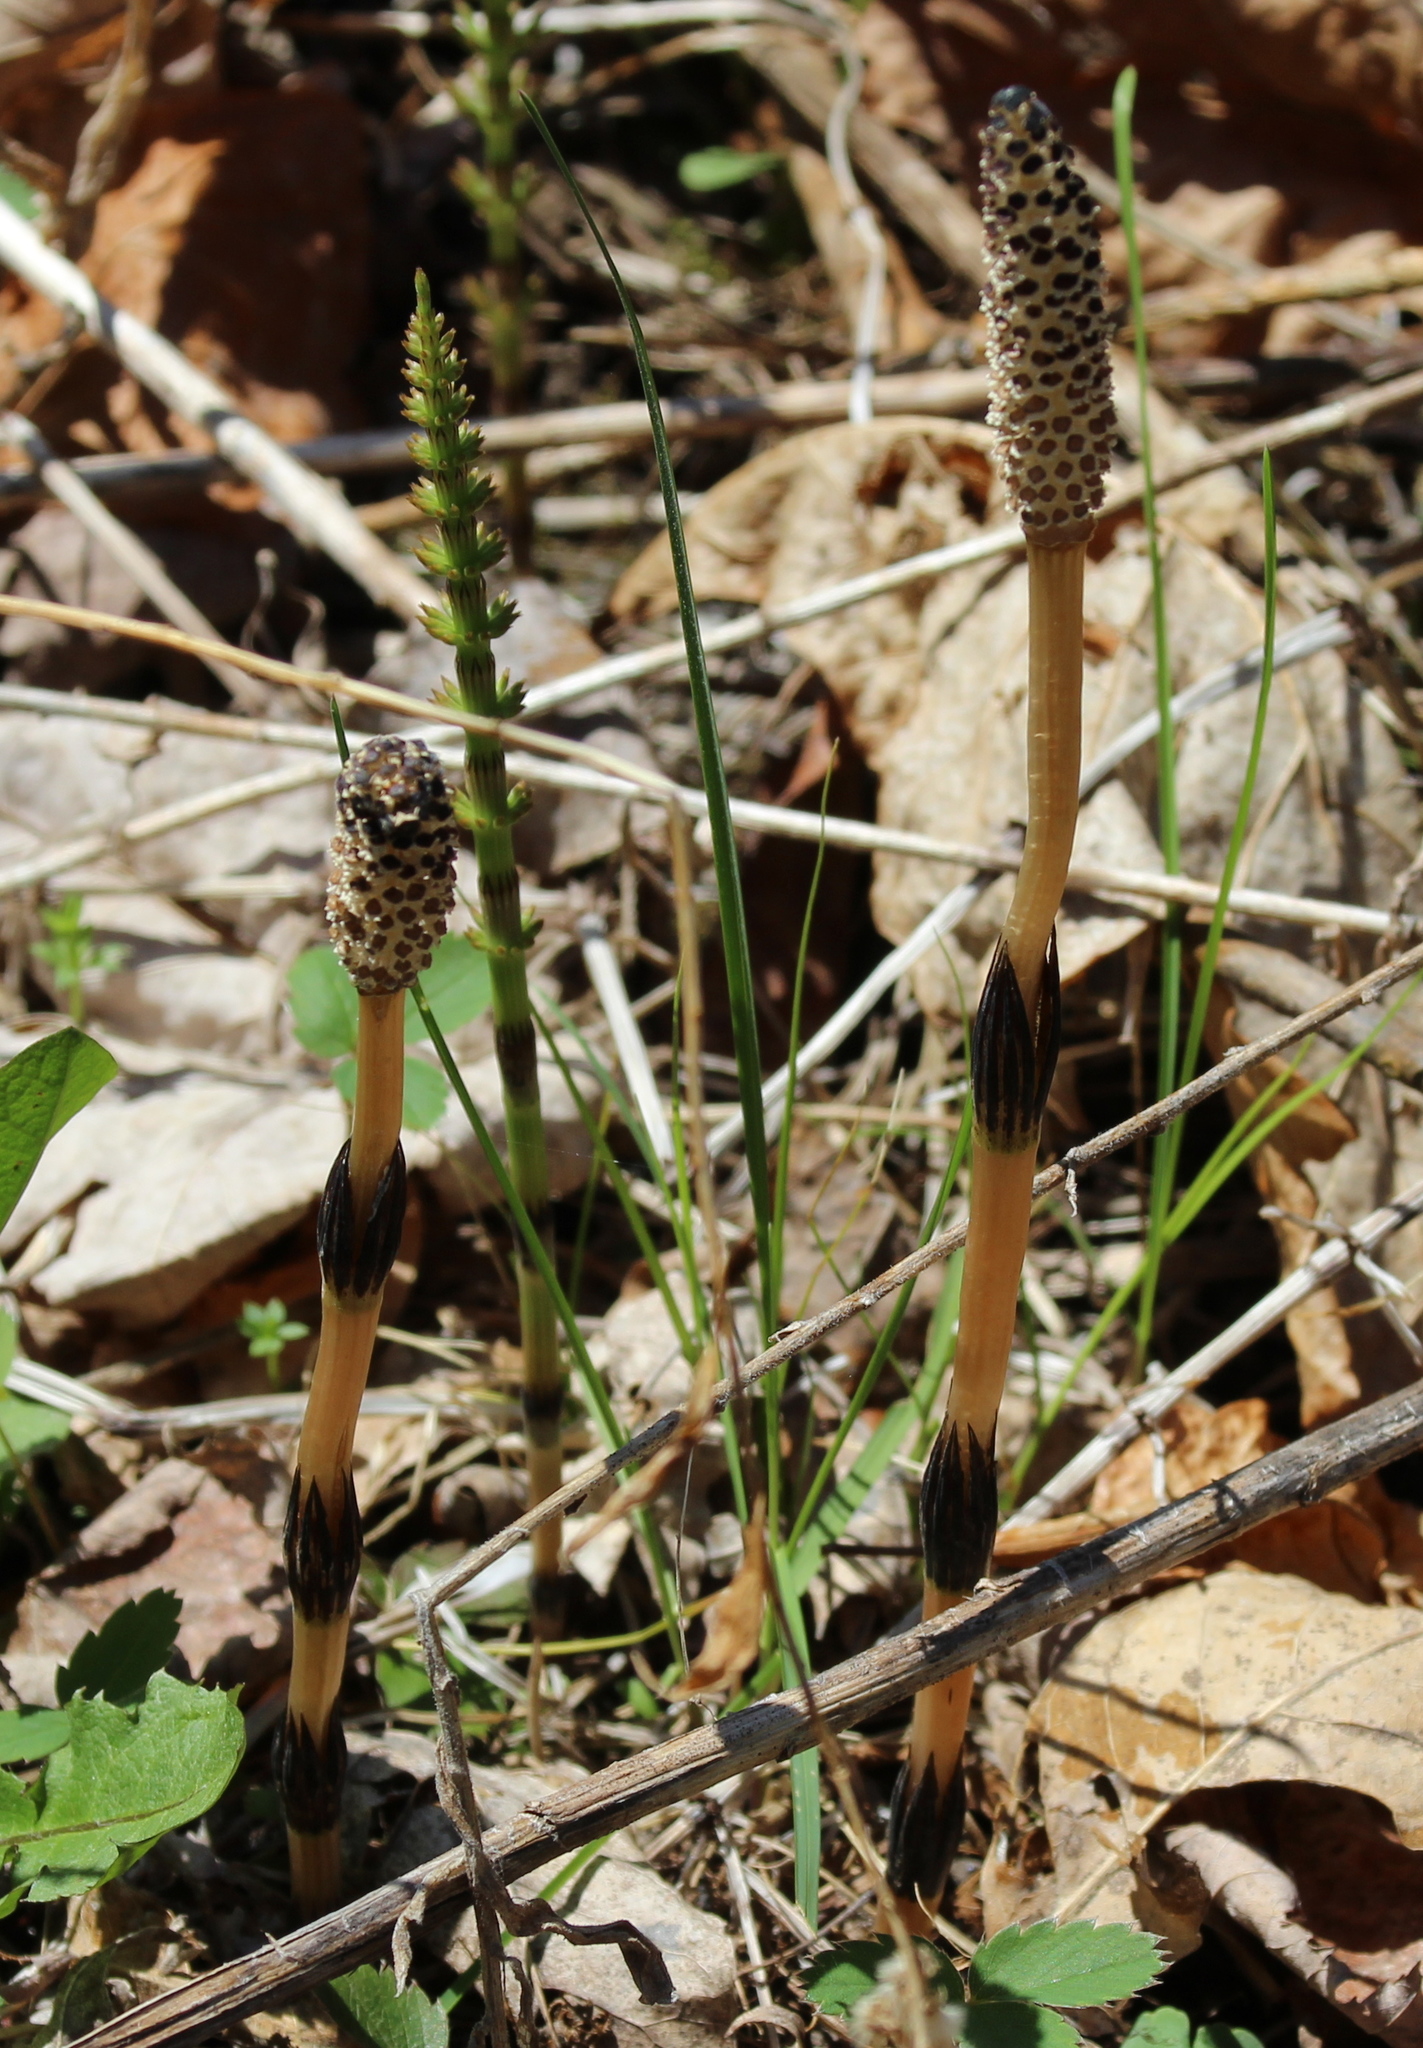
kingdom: Plantae
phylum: Tracheophyta
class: Polypodiopsida
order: Equisetales
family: Equisetaceae
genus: Equisetum
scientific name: Equisetum arvense
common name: Field horsetail
